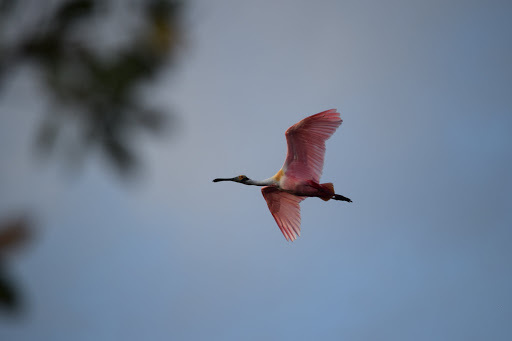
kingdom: Animalia
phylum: Chordata
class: Aves
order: Pelecaniformes
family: Threskiornithidae
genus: Platalea
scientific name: Platalea ajaja
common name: Roseate spoonbill
